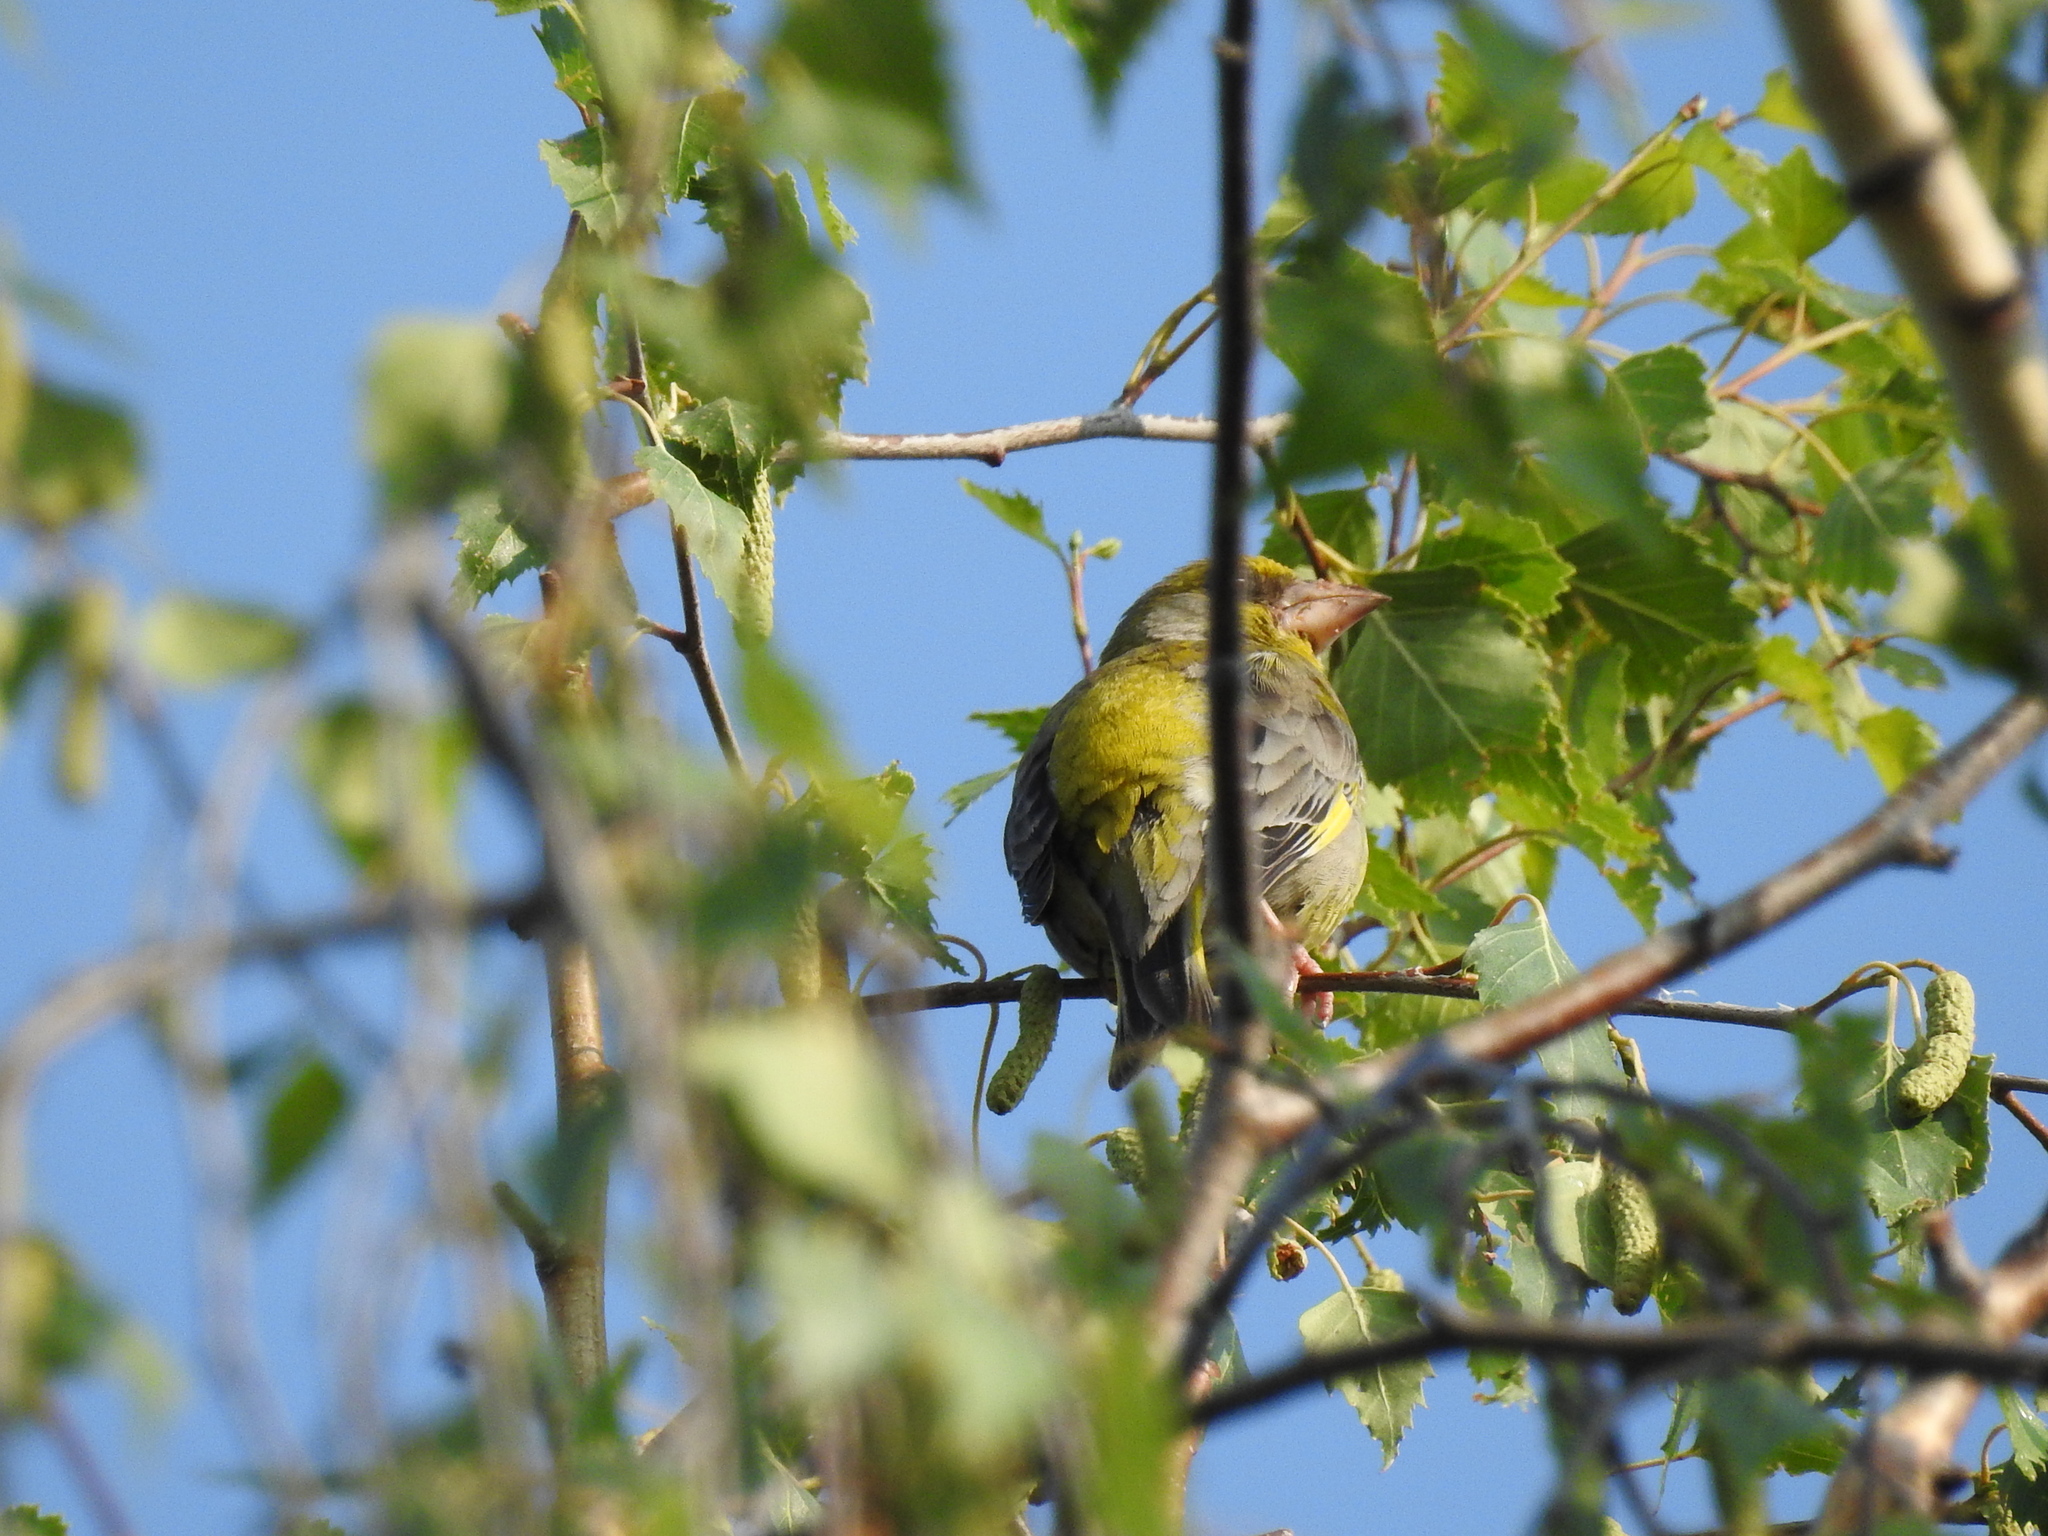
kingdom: Plantae
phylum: Tracheophyta
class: Liliopsida
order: Poales
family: Poaceae
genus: Chloris
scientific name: Chloris chloris
